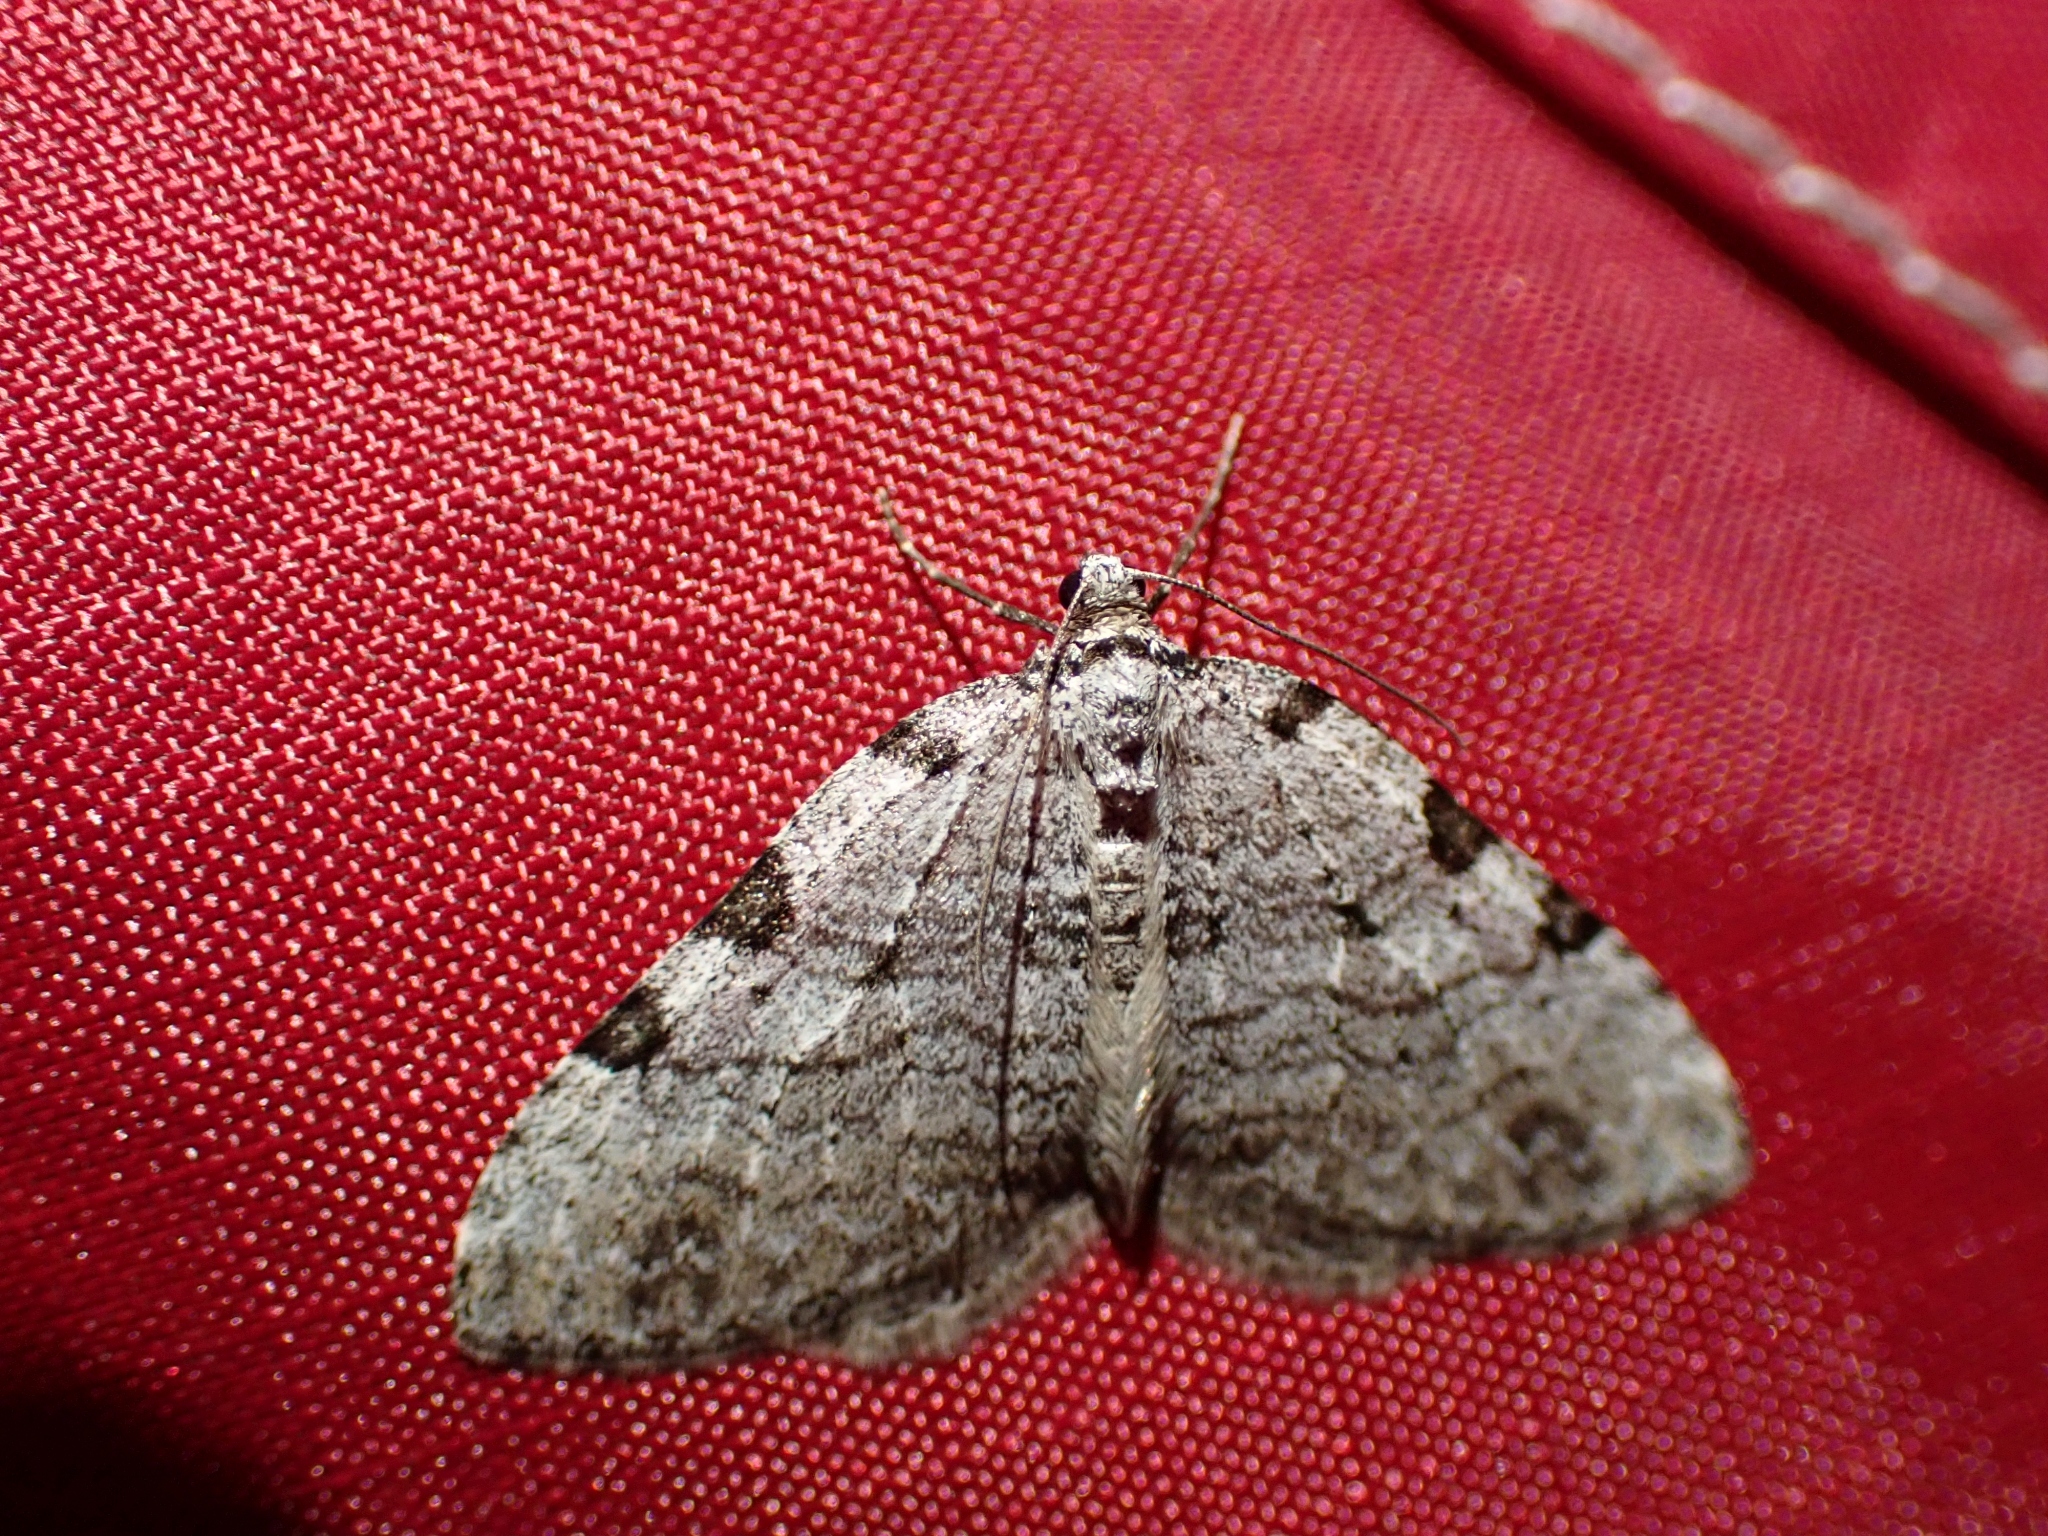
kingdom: Animalia
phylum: Arthropoda
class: Insecta
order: Lepidoptera
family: Geometridae
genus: Perizoma
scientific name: Perizoma costiguttata
